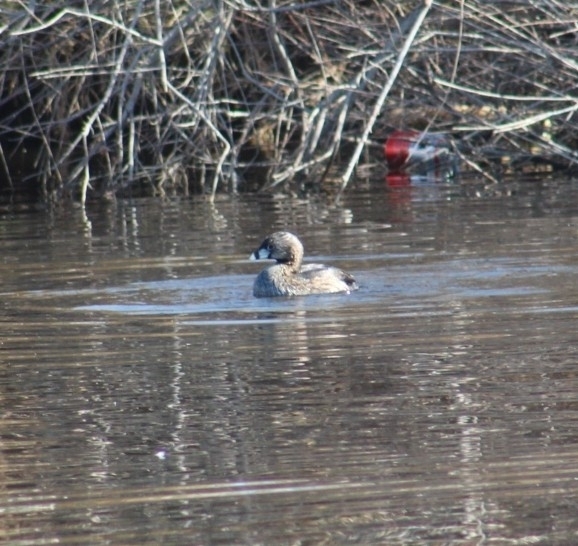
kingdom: Animalia
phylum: Chordata
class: Aves
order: Podicipediformes
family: Podicipedidae
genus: Podilymbus
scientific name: Podilymbus podiceps
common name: Pied-billed grebe
